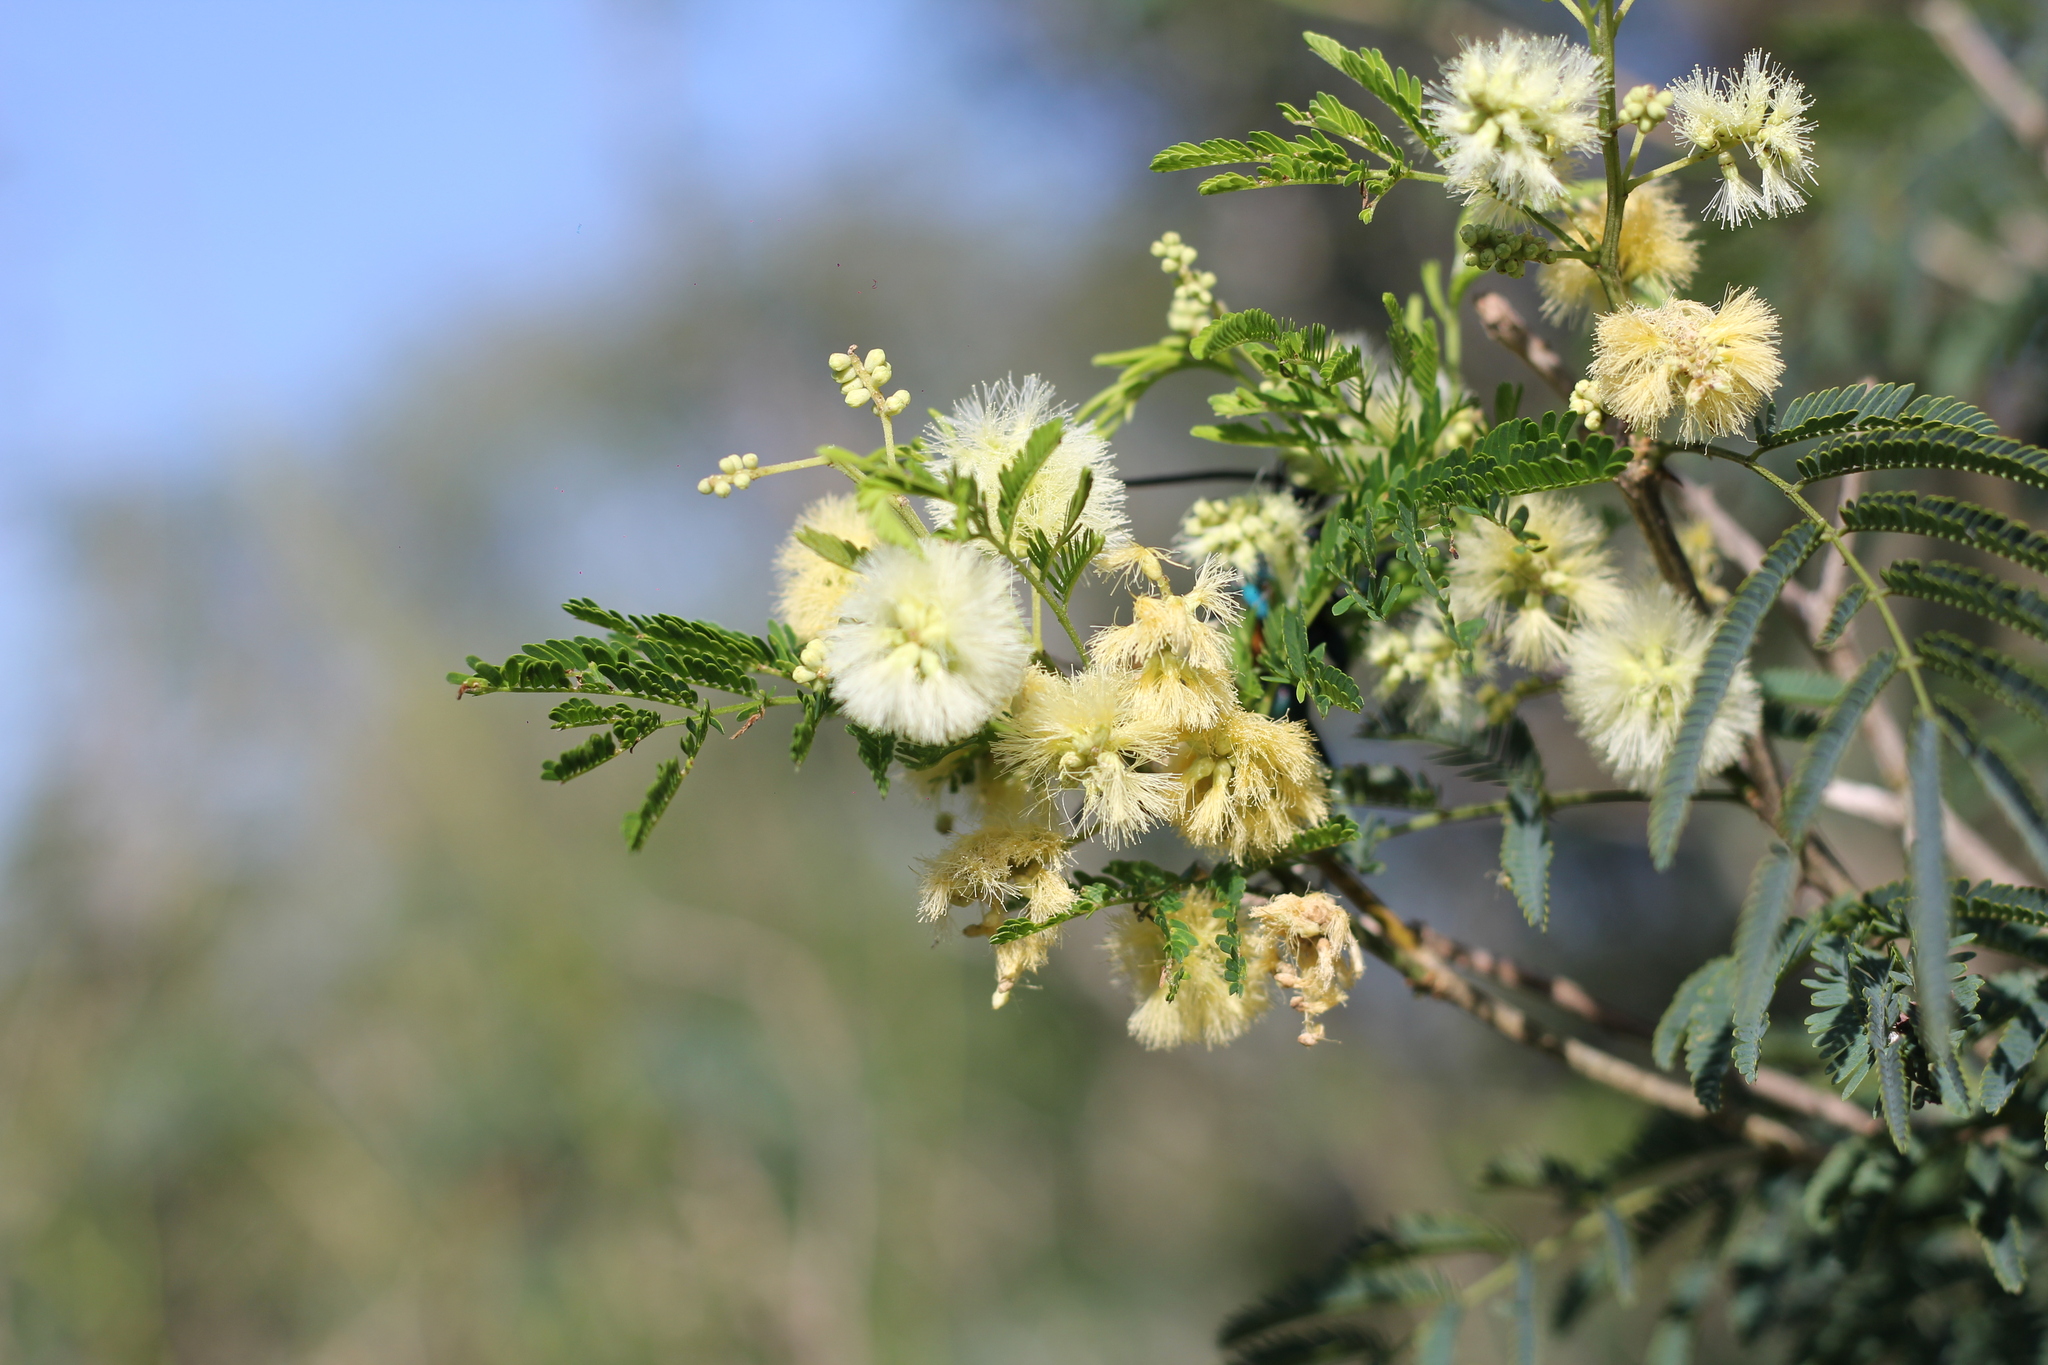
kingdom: Plantae
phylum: Tracheophyta
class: Magnoliopsida
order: Fabales
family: Fabaceae
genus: Senegalia
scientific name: Senegalia bonariensis
